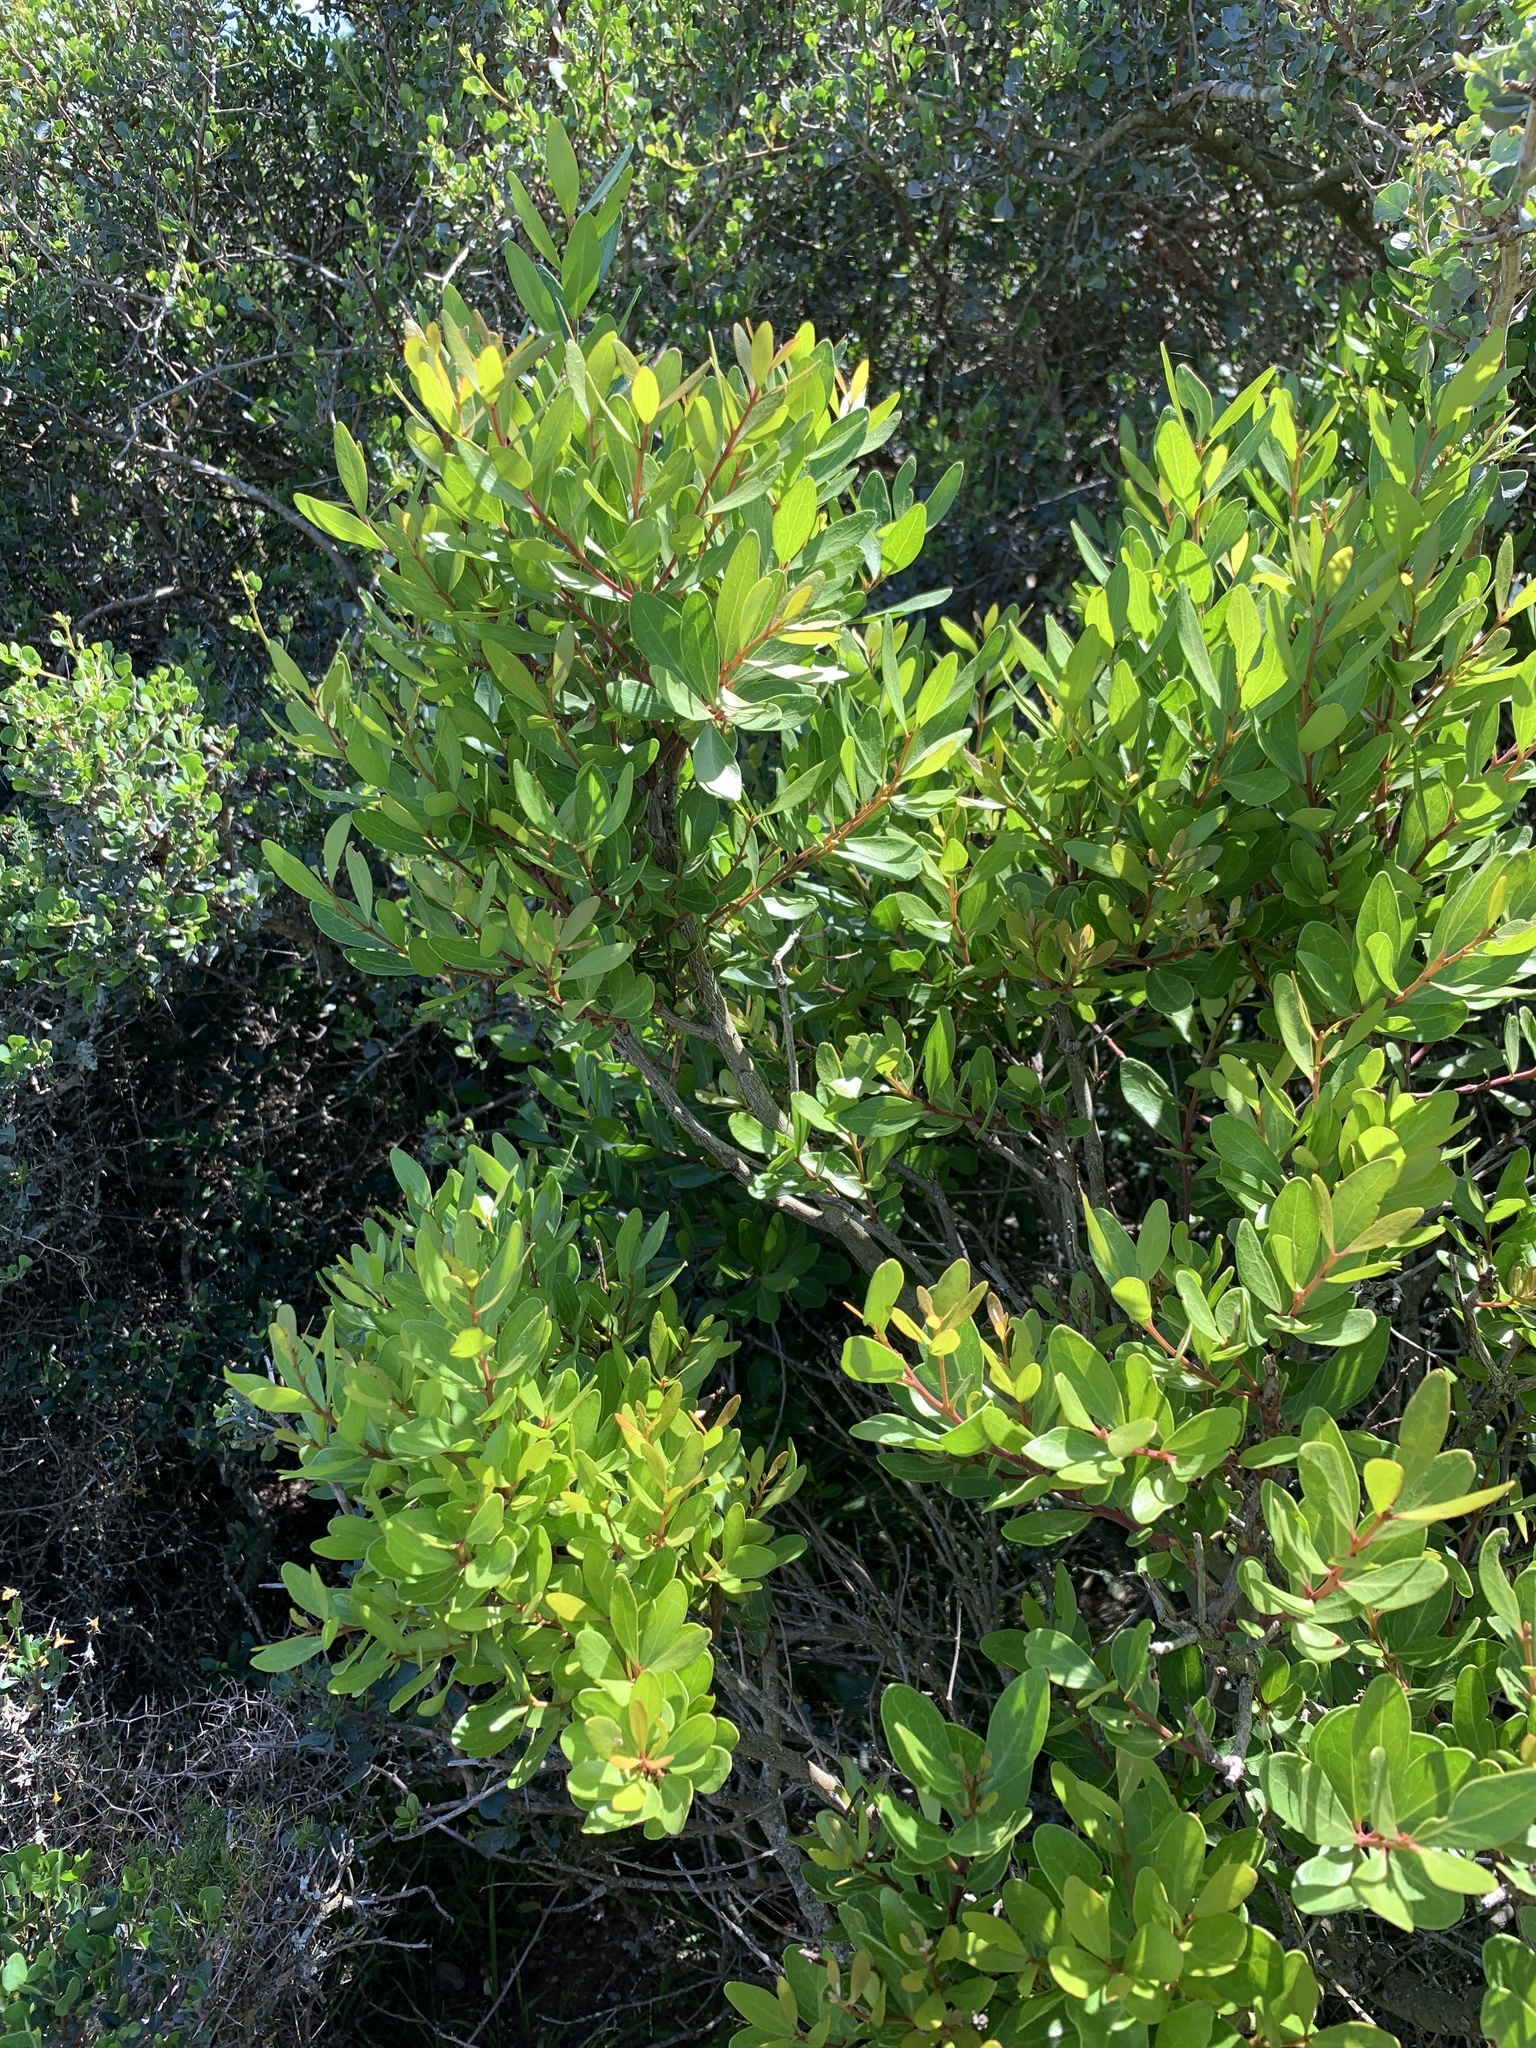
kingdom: Plantae
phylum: Tracheophyta
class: Magnoliopsida
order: Ericales
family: Ebenaceae
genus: Euclea
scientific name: Euclea racemosa
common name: Dune guarri
